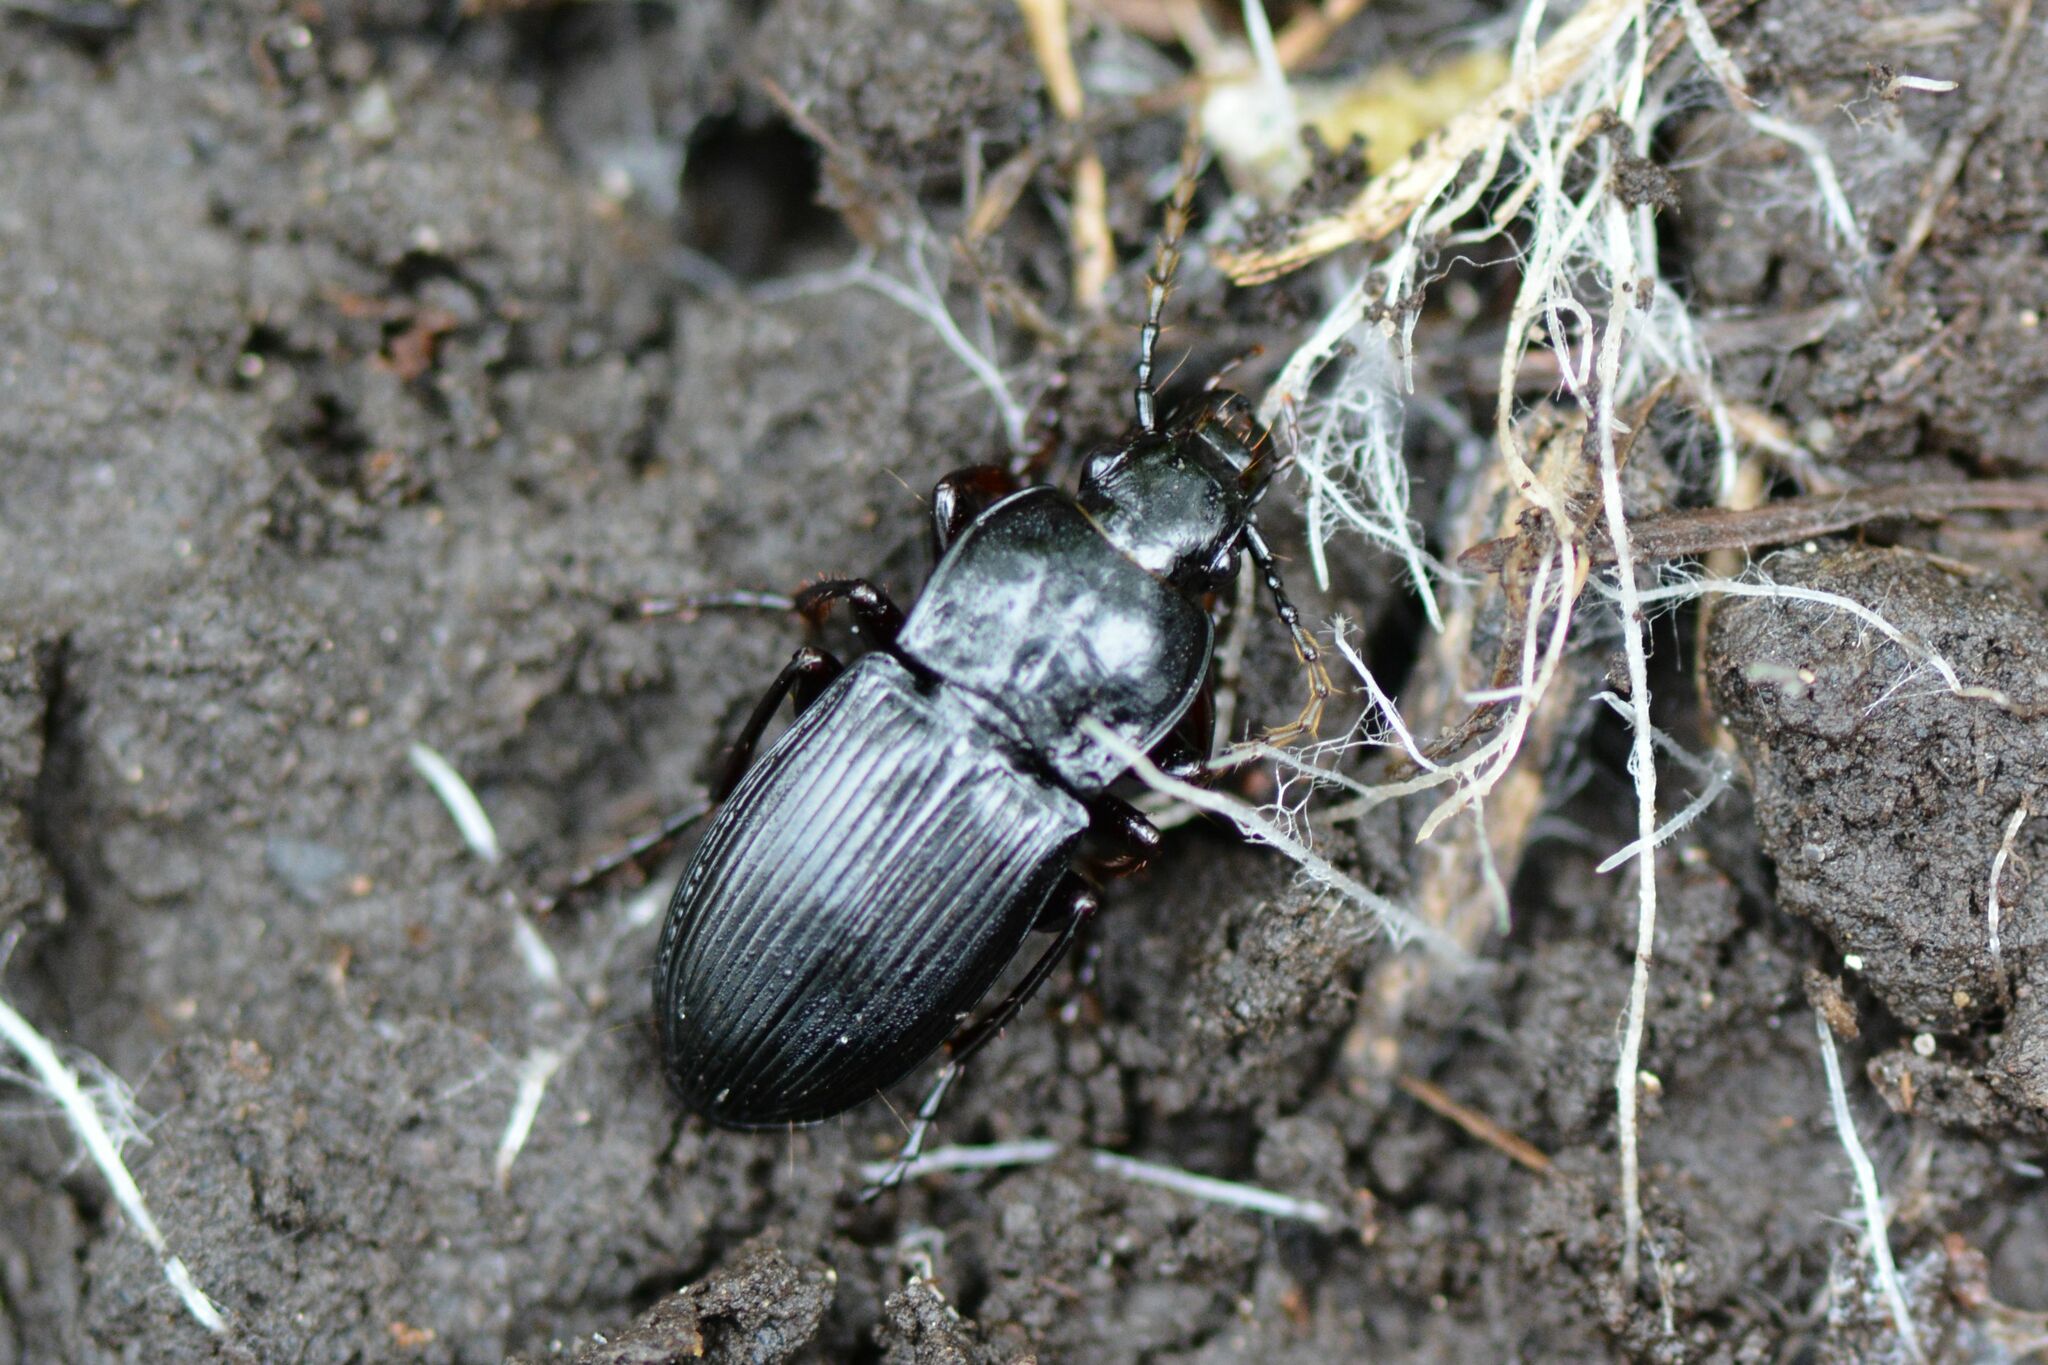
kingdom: Animalia
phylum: Arthropoda
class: Insecta
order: Coleoptera
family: Carabidae
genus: Abax
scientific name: Abax parallelus
